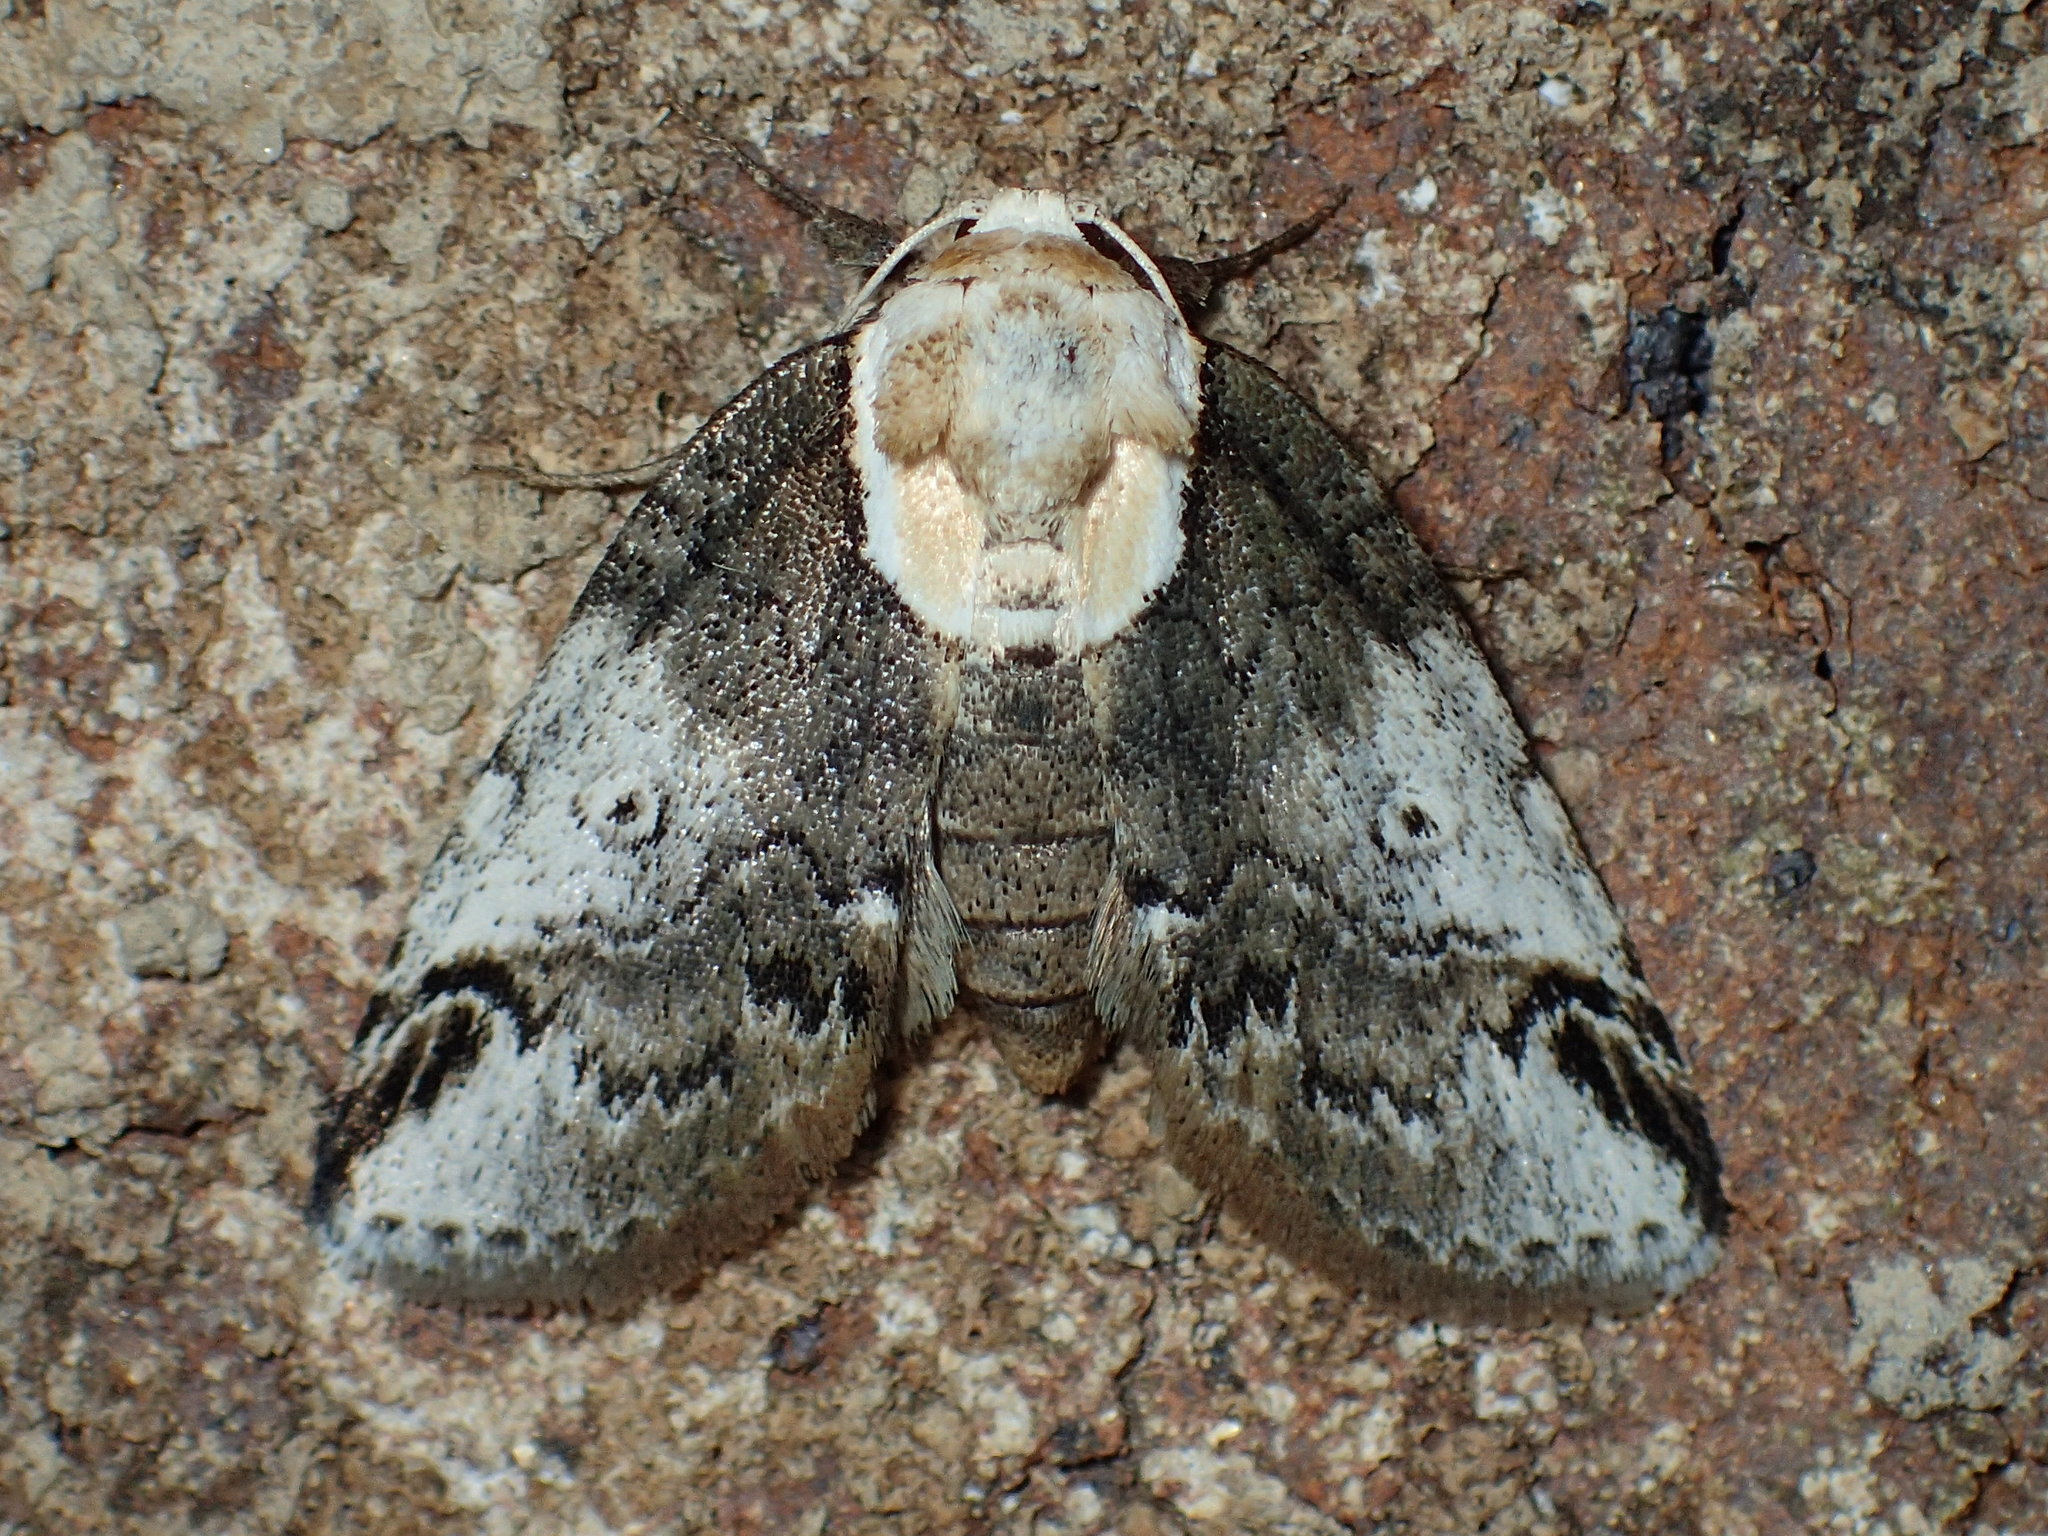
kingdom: Animalia
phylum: Arthropoda
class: Insecta
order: Lepidoptera
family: Nolidae
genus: Baileya
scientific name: Baileya ophthalmica
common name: Eyed baileya moth
